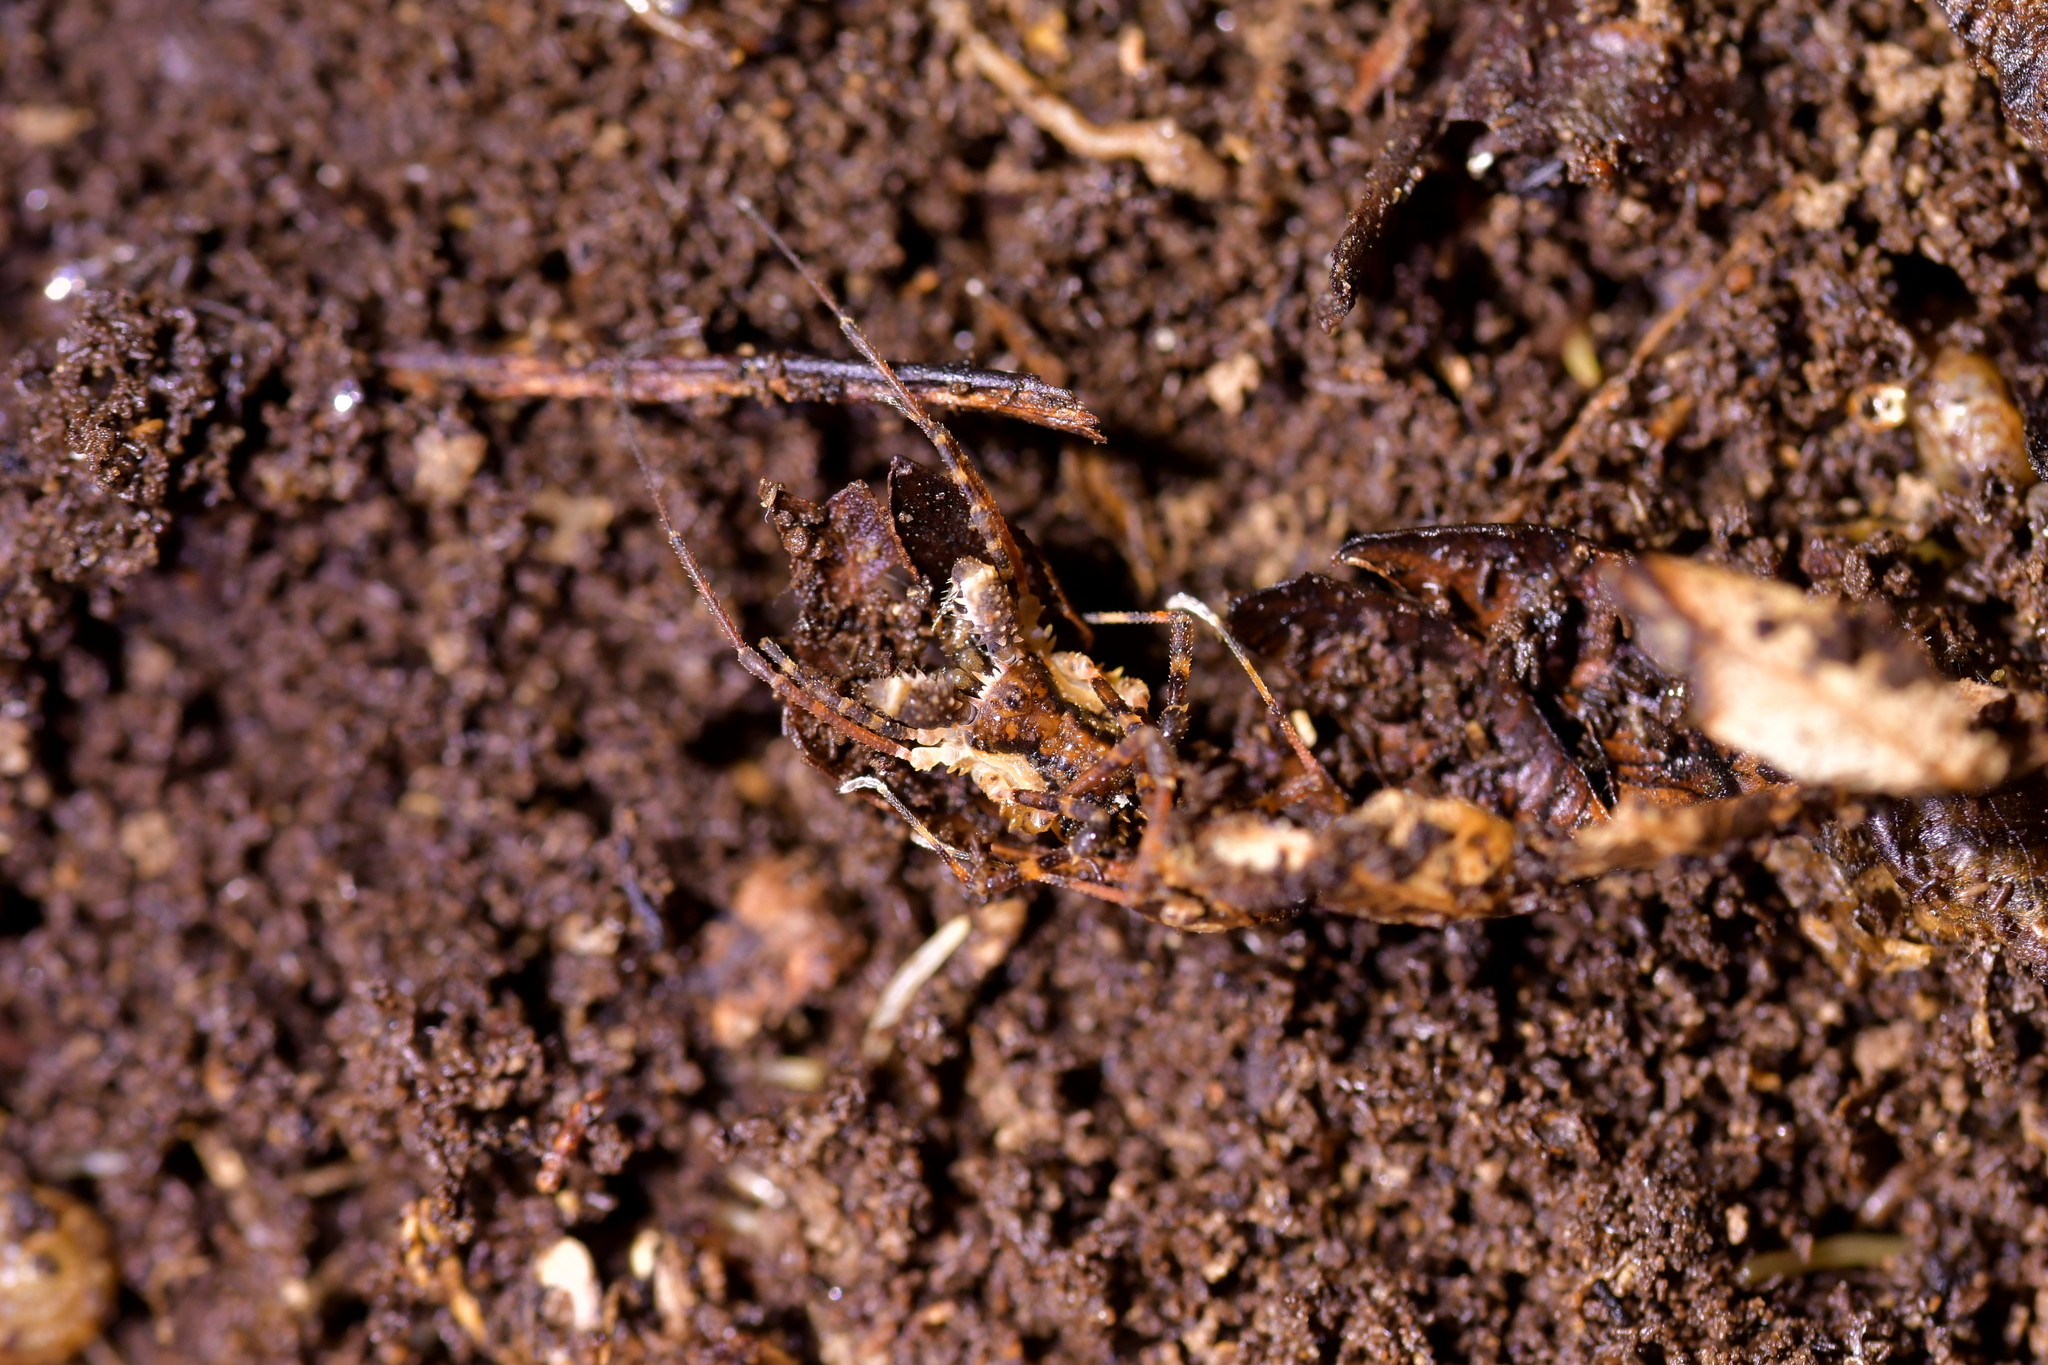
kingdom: Animalia
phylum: Arthropoda
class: Arachnida
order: Opiliones
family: Triaenonychidae
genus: Algidia
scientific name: Algidia nigriflava
